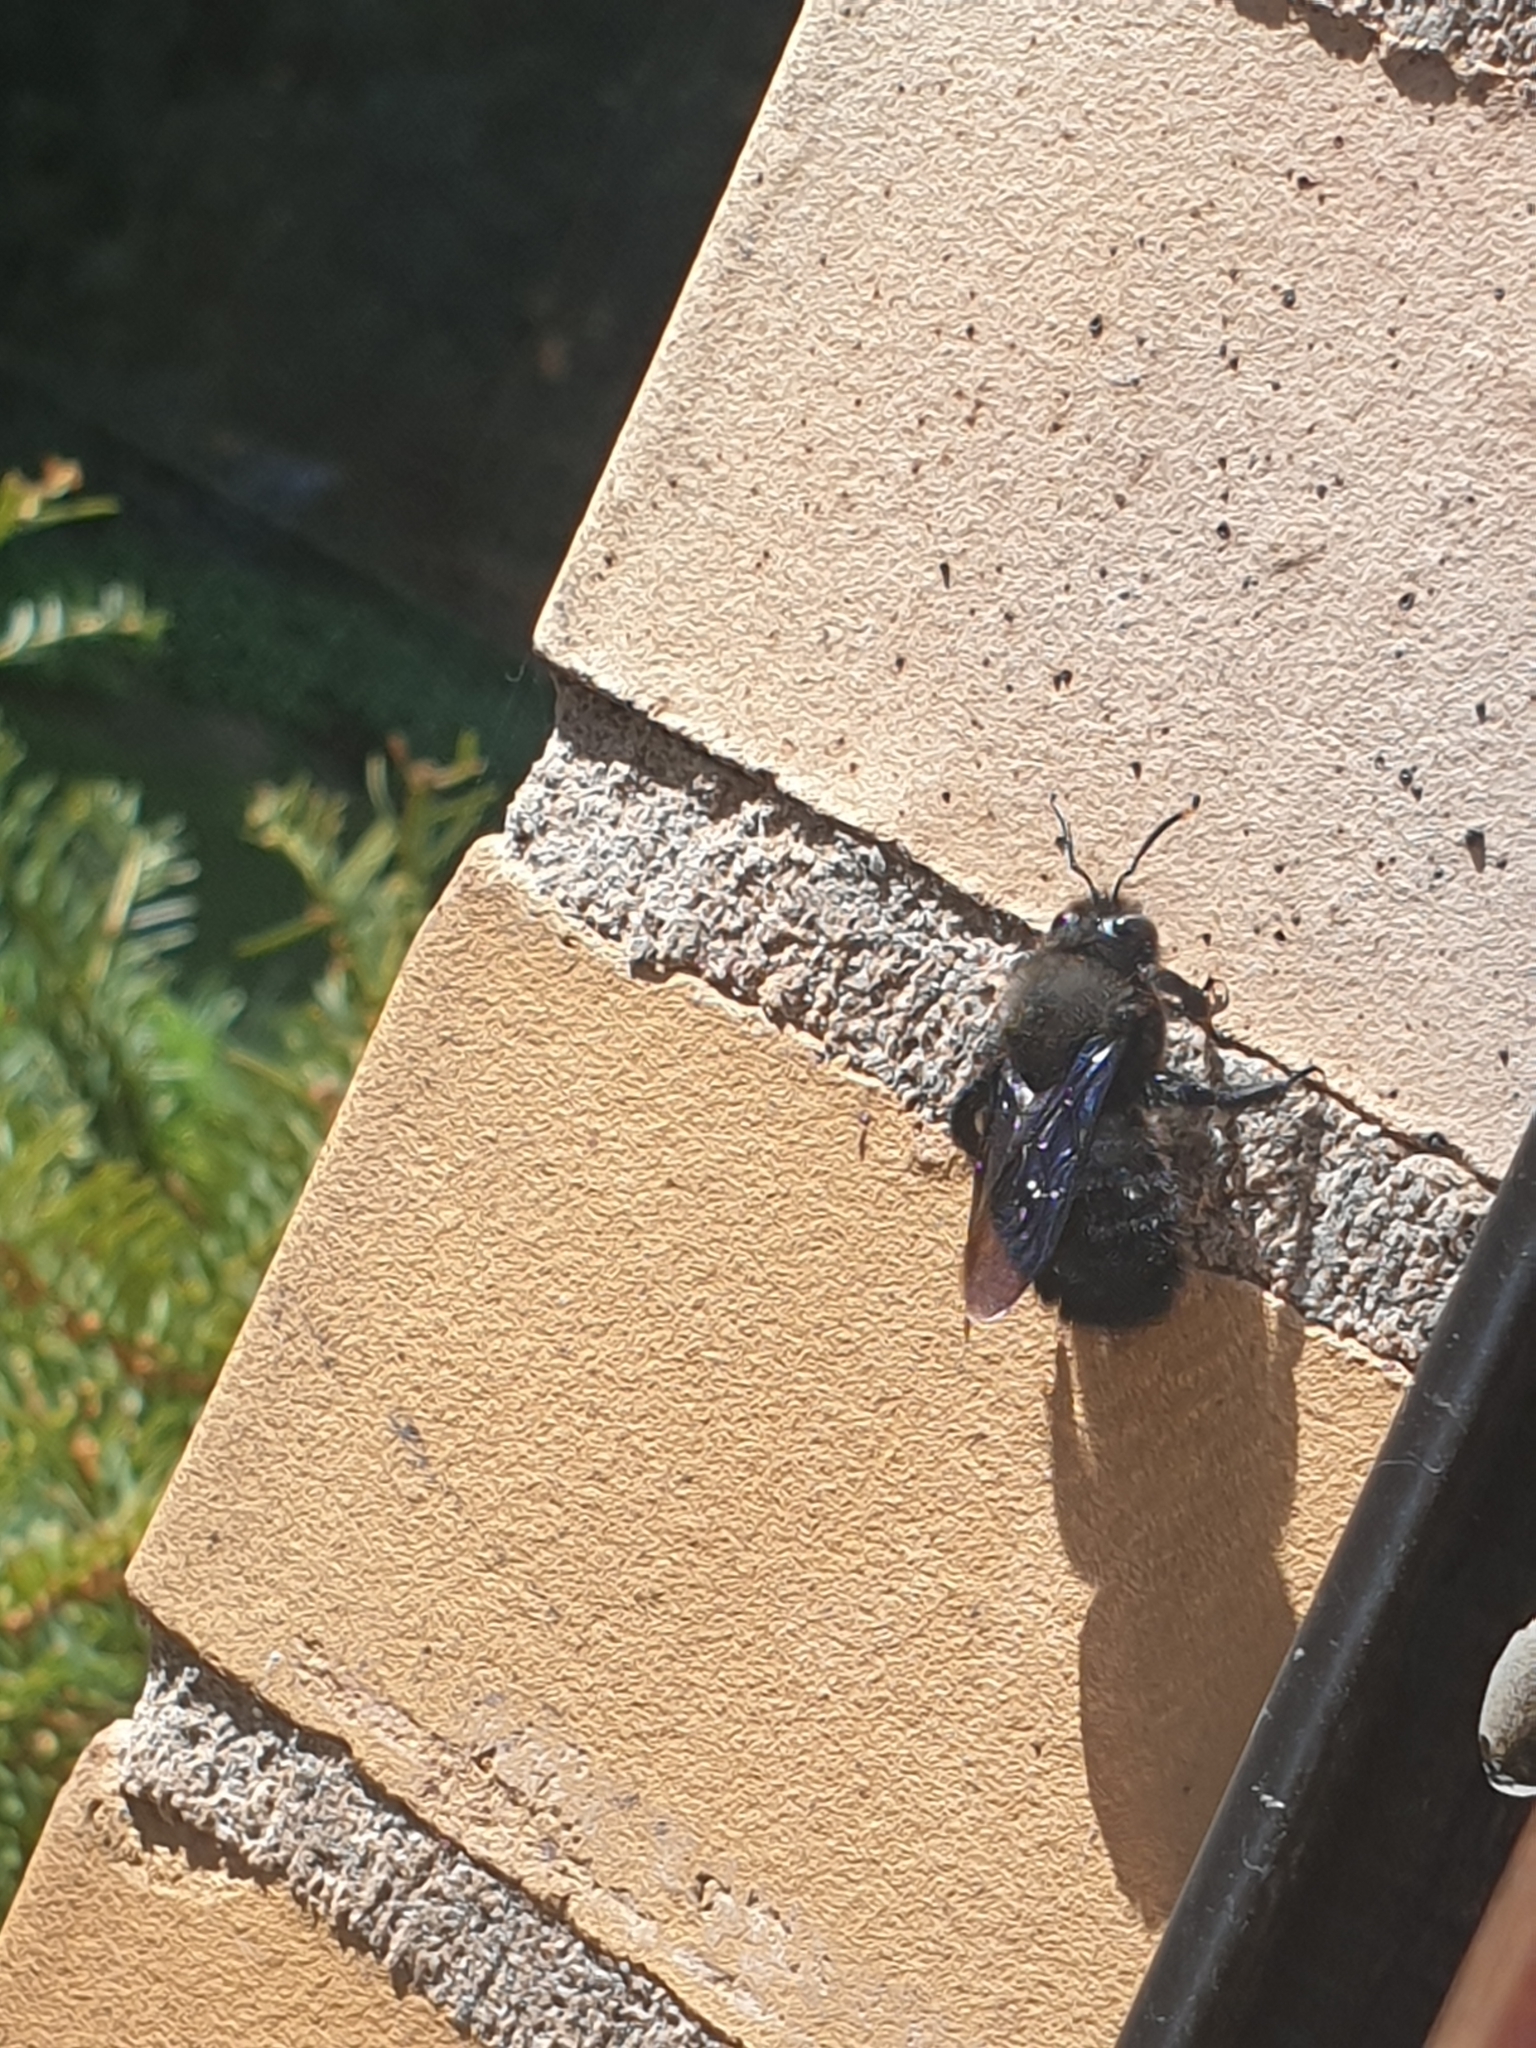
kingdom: Animalia
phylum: Arthropoda
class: Insecta
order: Hymenoptera
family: Apidae
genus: Xylocopa
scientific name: Xylocopa violacea
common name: Violet carpenter bee
